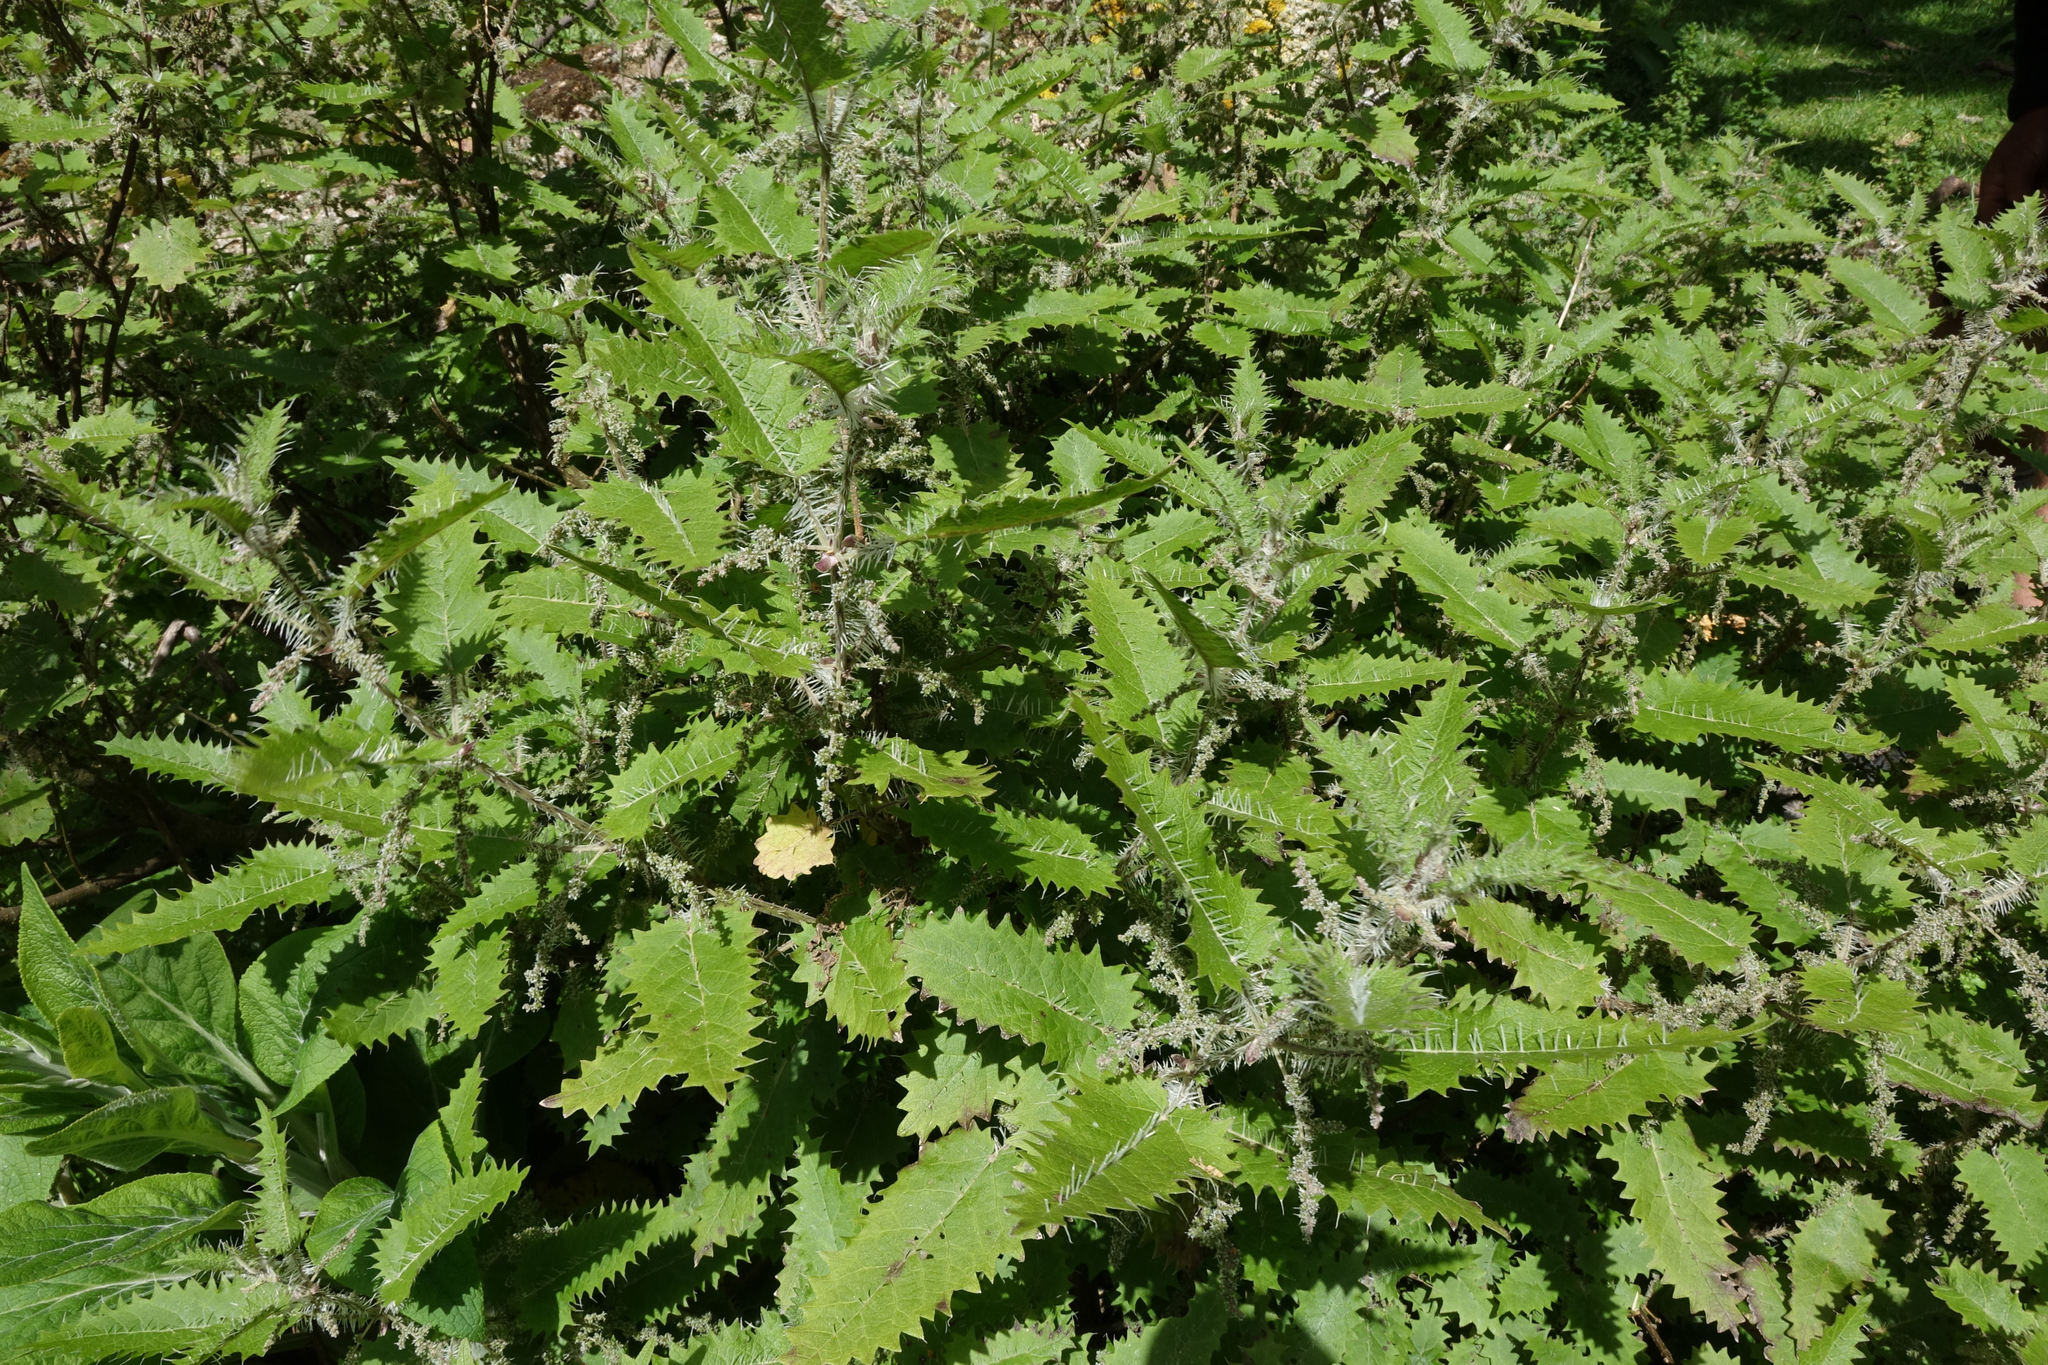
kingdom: Plantae
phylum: Tracheophyta
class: Magnoliopsida
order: Rosales
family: Urticaceae
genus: Urtica
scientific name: Urtica ferox
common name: Tree nettle
